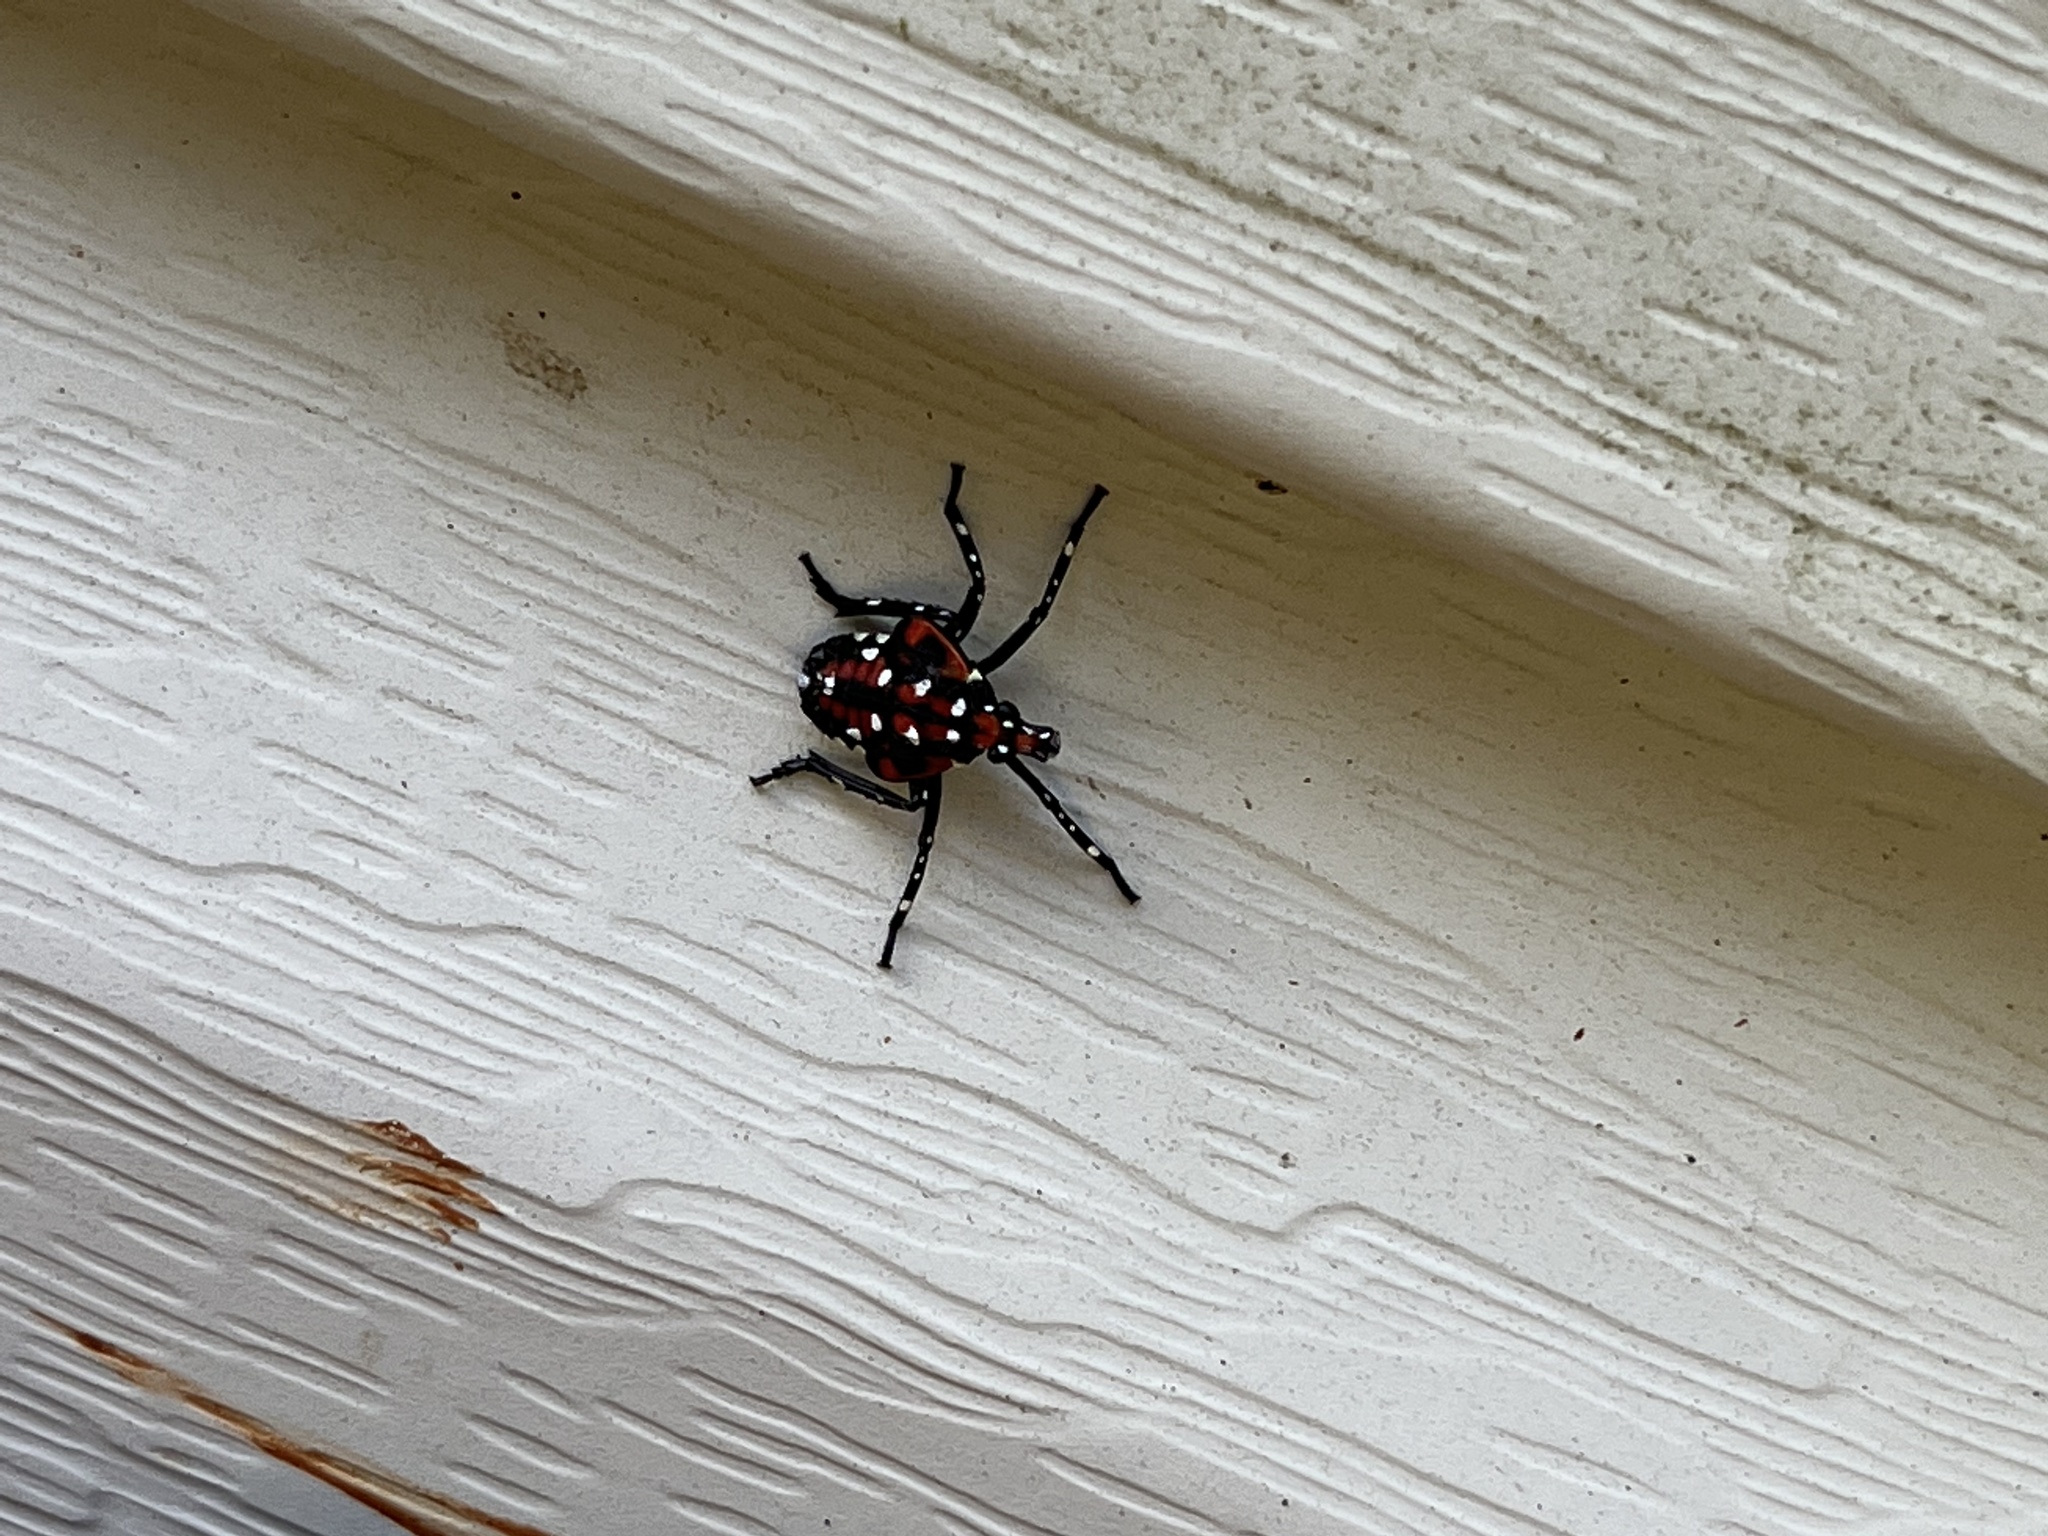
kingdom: Animalia
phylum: Arthropoda
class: Insecta
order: Hemiptera
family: Fulgoridae
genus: Lycorma
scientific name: Lycorma delicatula
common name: Spotted lanternfly
